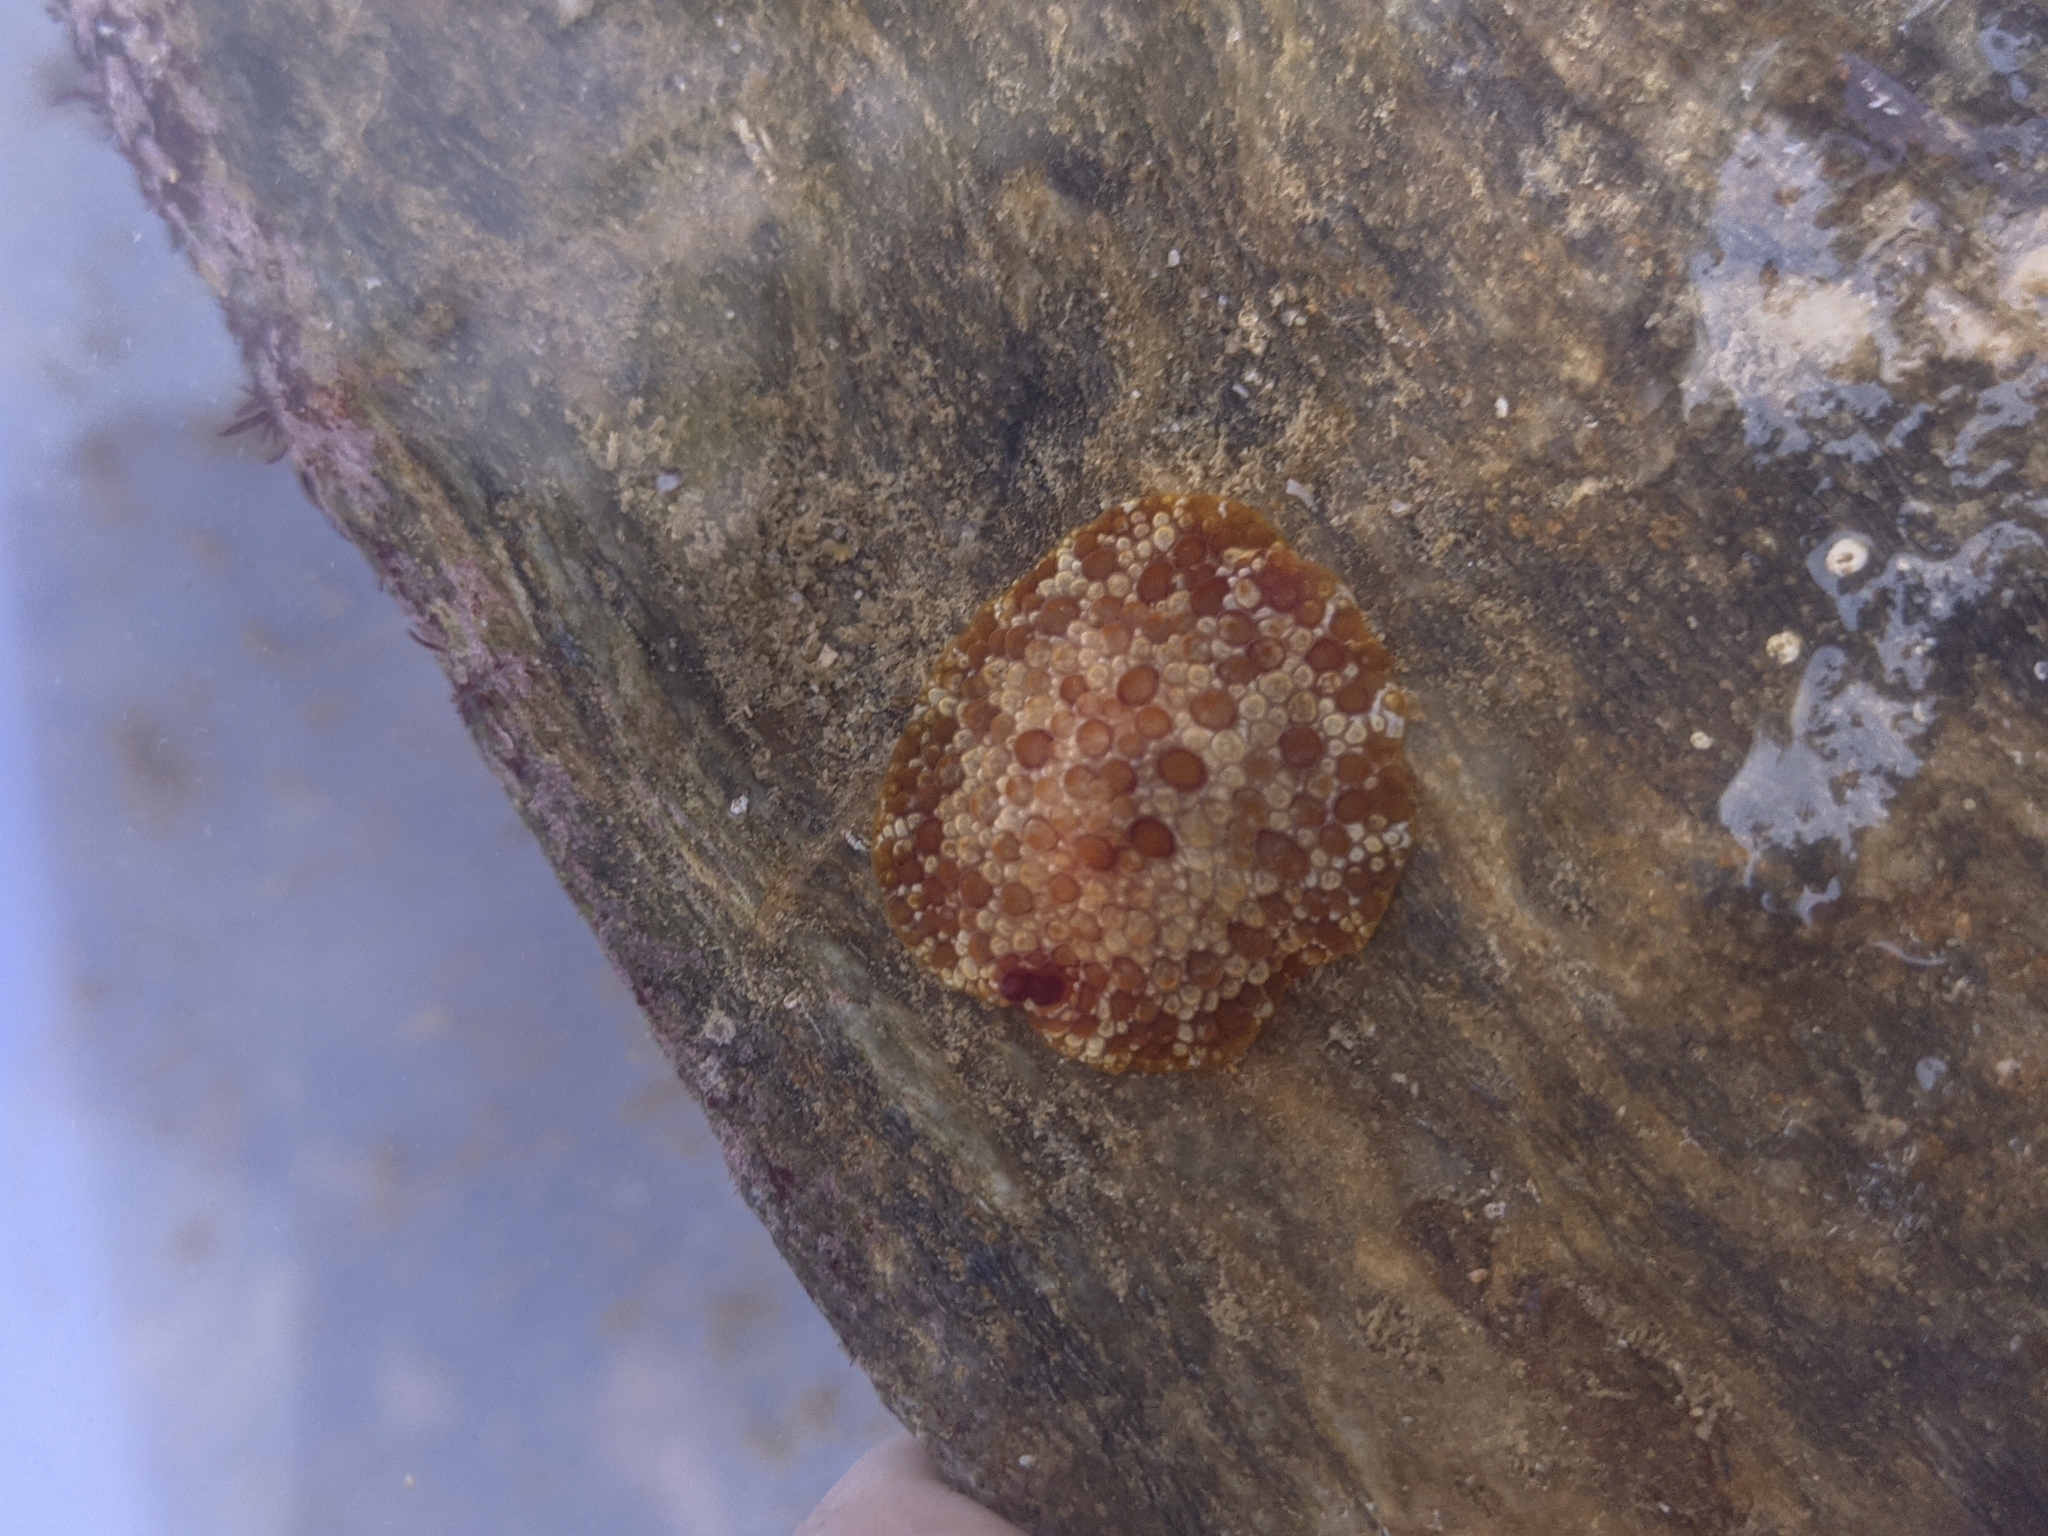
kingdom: Animalia
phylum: Mollusca
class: Gastropoda
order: Pleurobranchida
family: Pleurobranchidae
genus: Pleurobranchus
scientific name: Pleurobranchus areolatus
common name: Atlantic sidegill slug
